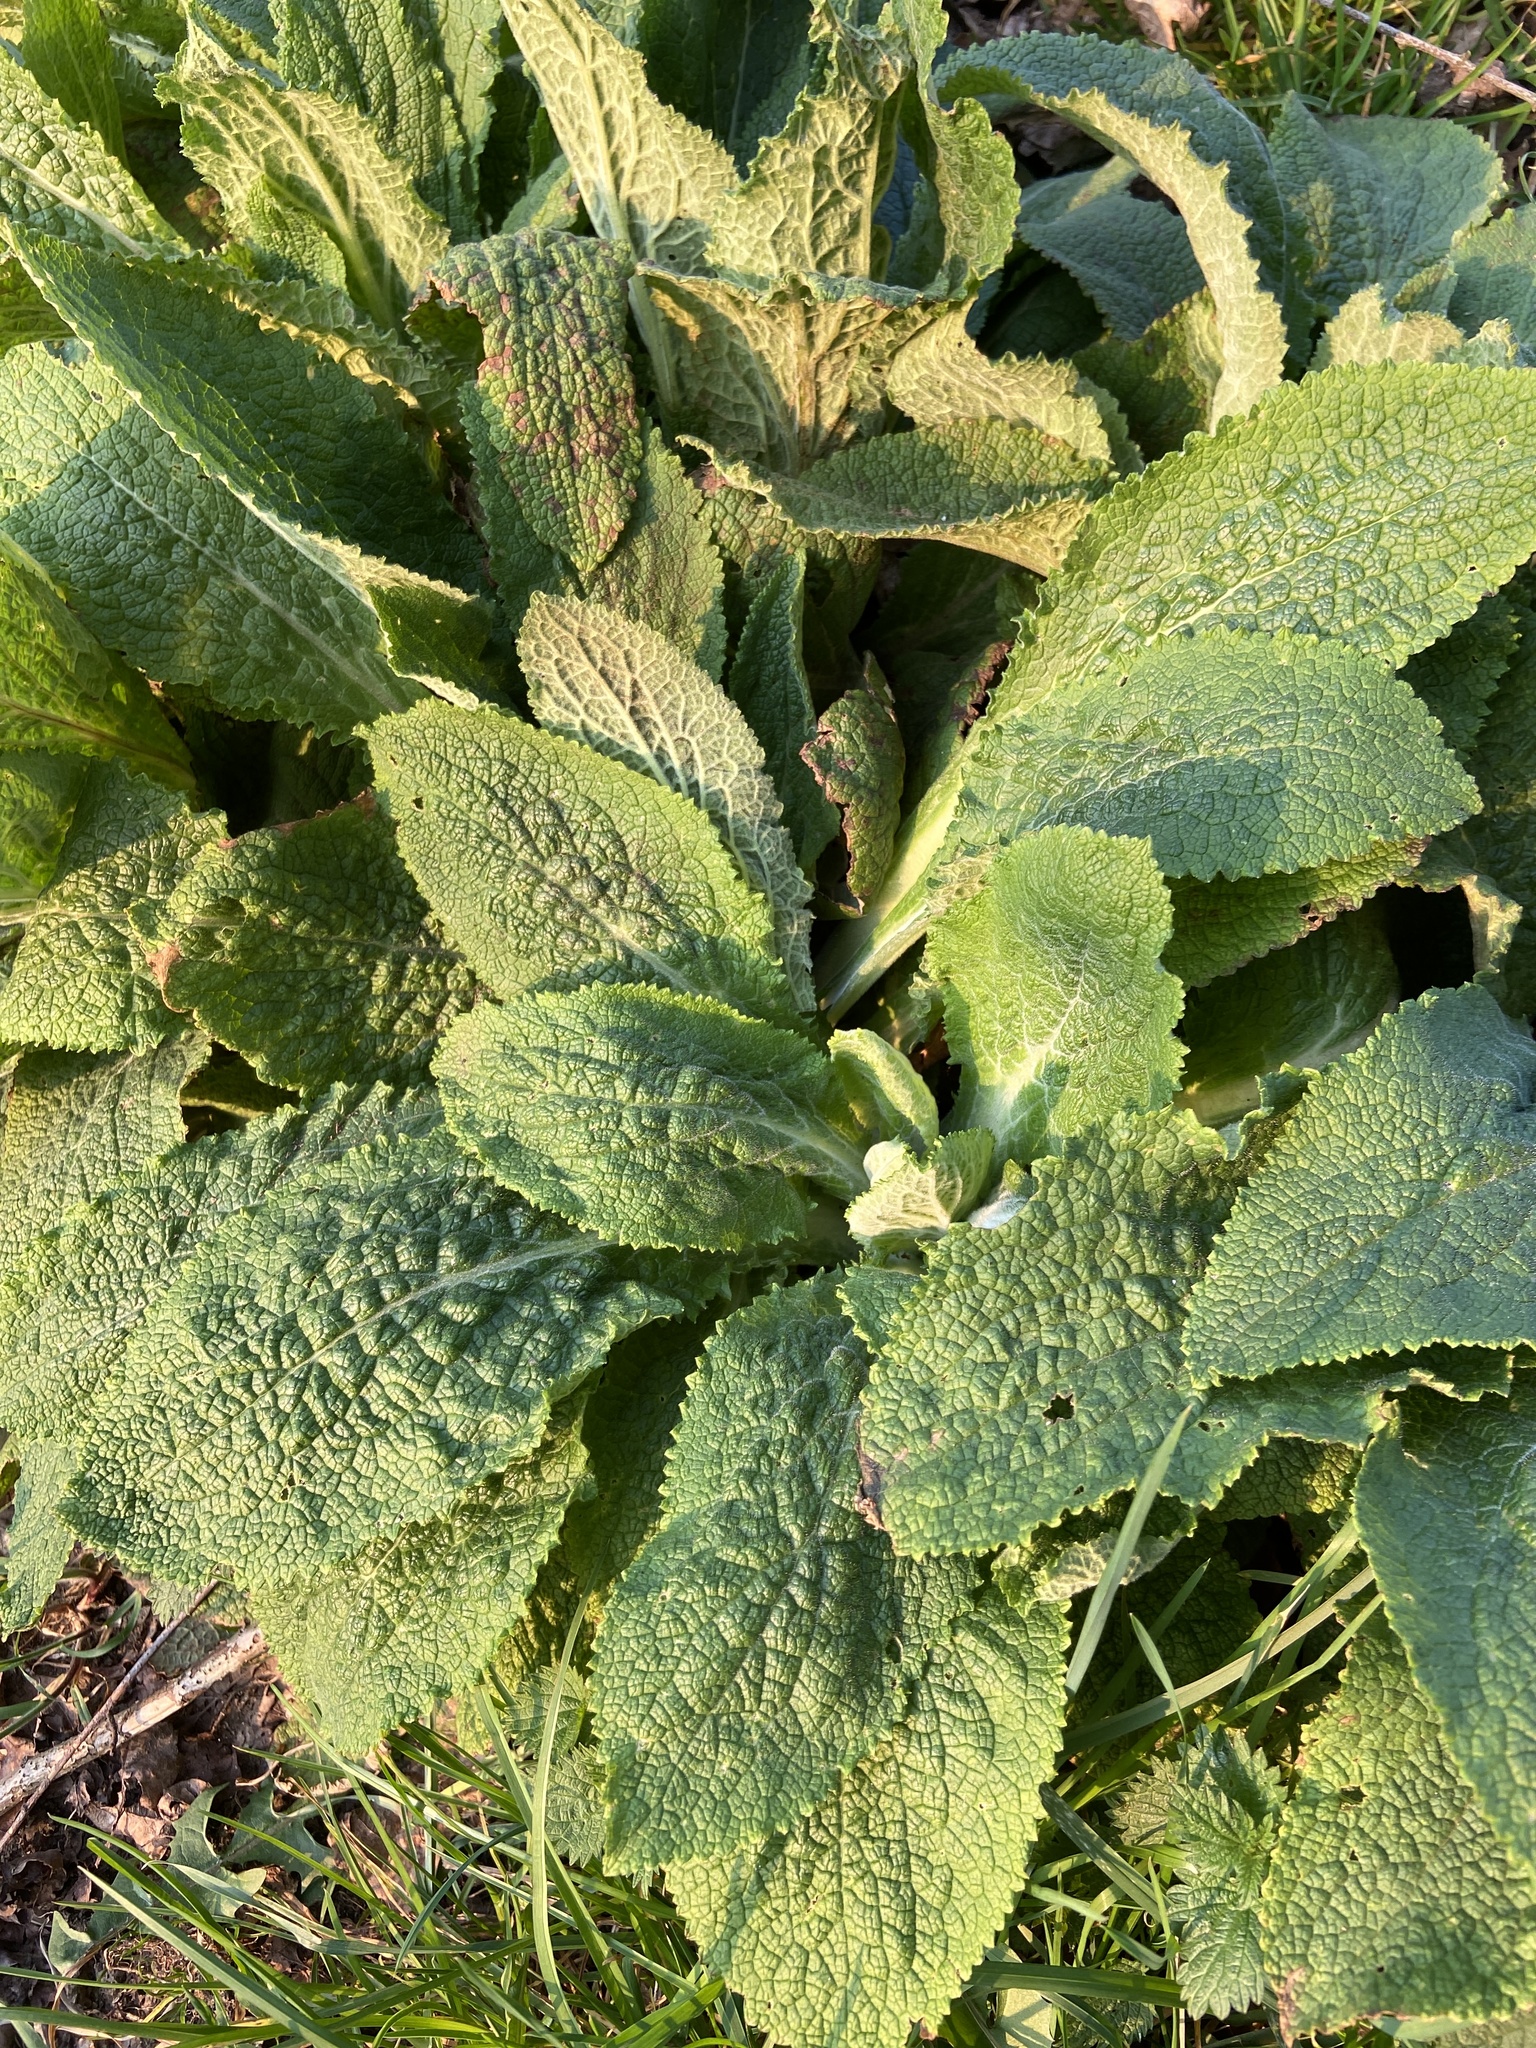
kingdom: Plantae
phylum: Tracheophyta
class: Magnoliopsida
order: Lamiales
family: Plantaginaceae
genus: Digitalis
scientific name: Digitalis purpurea
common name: Foxglove
